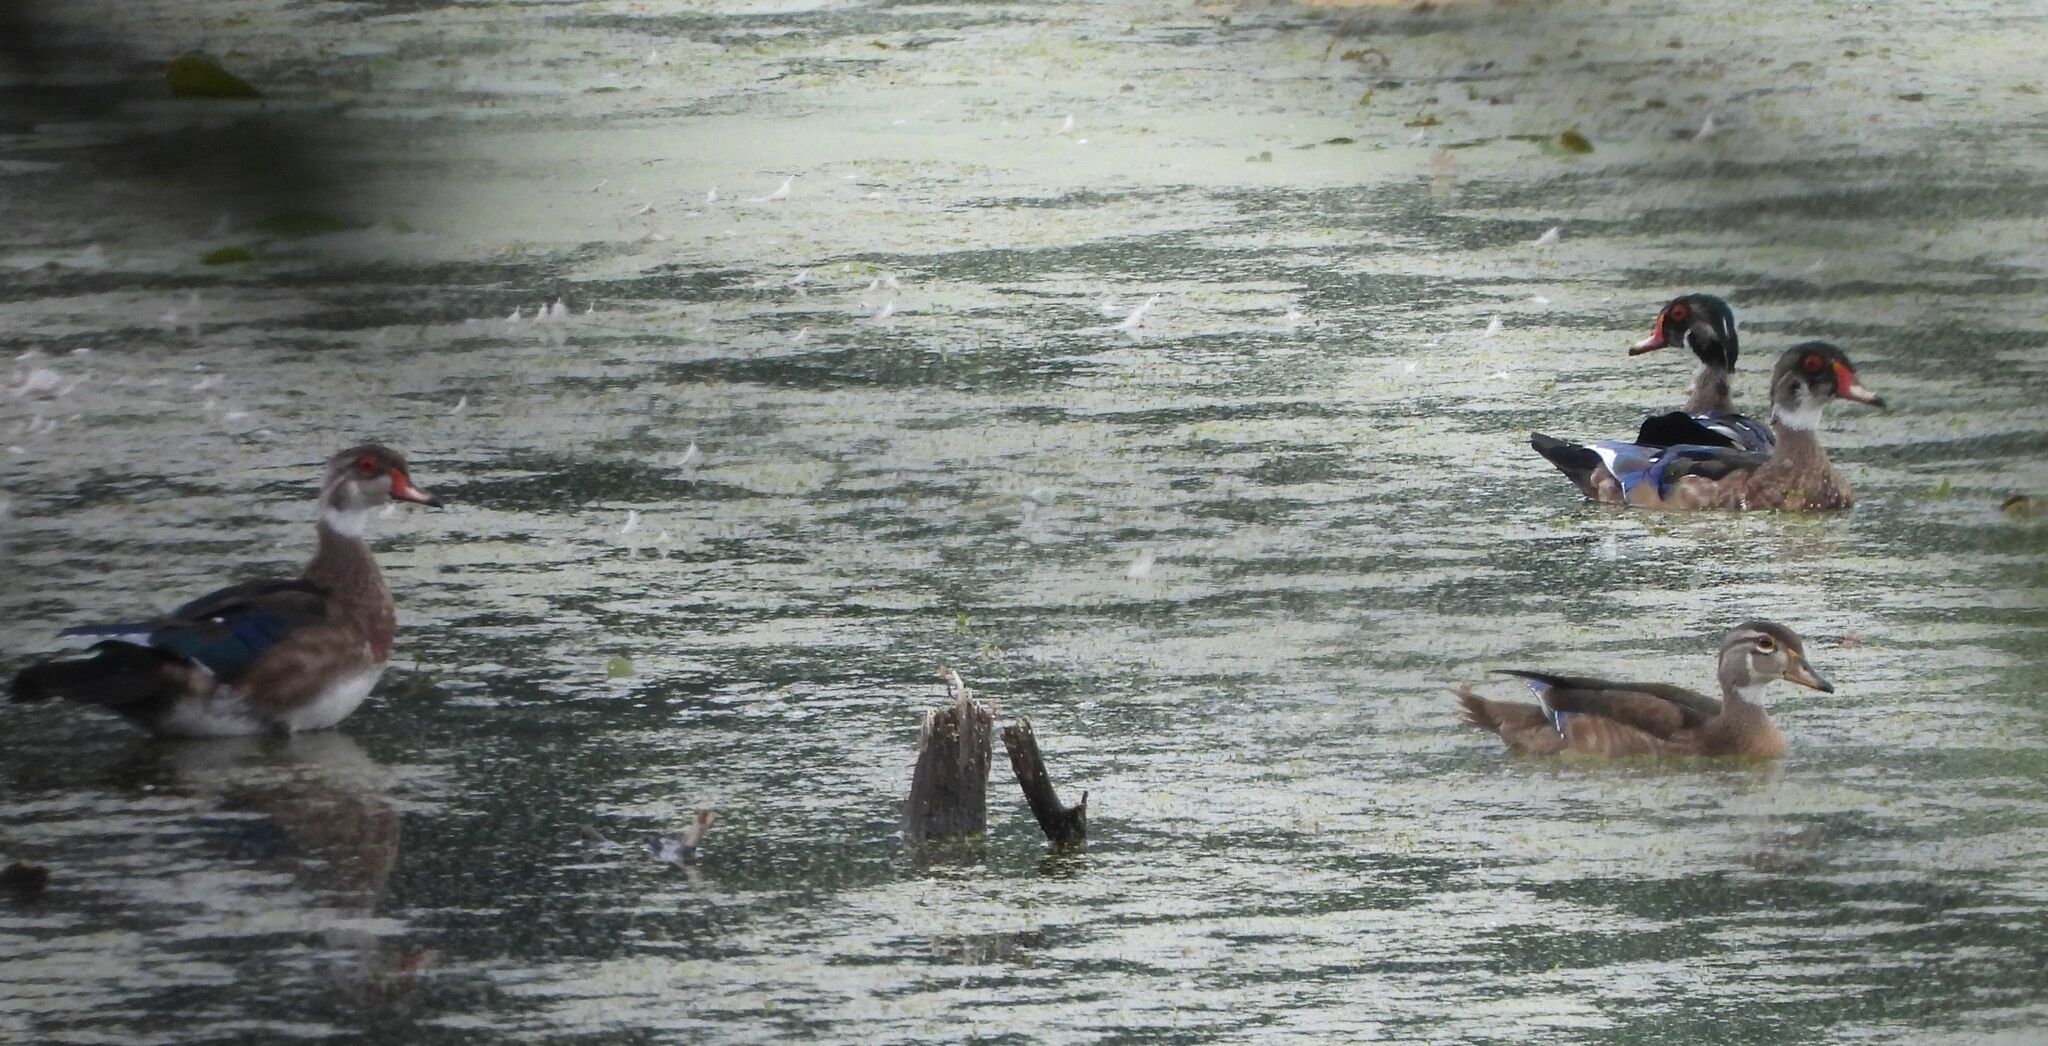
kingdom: Animalia
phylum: Chordata
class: Aves
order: Anseriformes
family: Anatidae
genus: Aix
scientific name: Aix sponsa
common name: Wood duck
